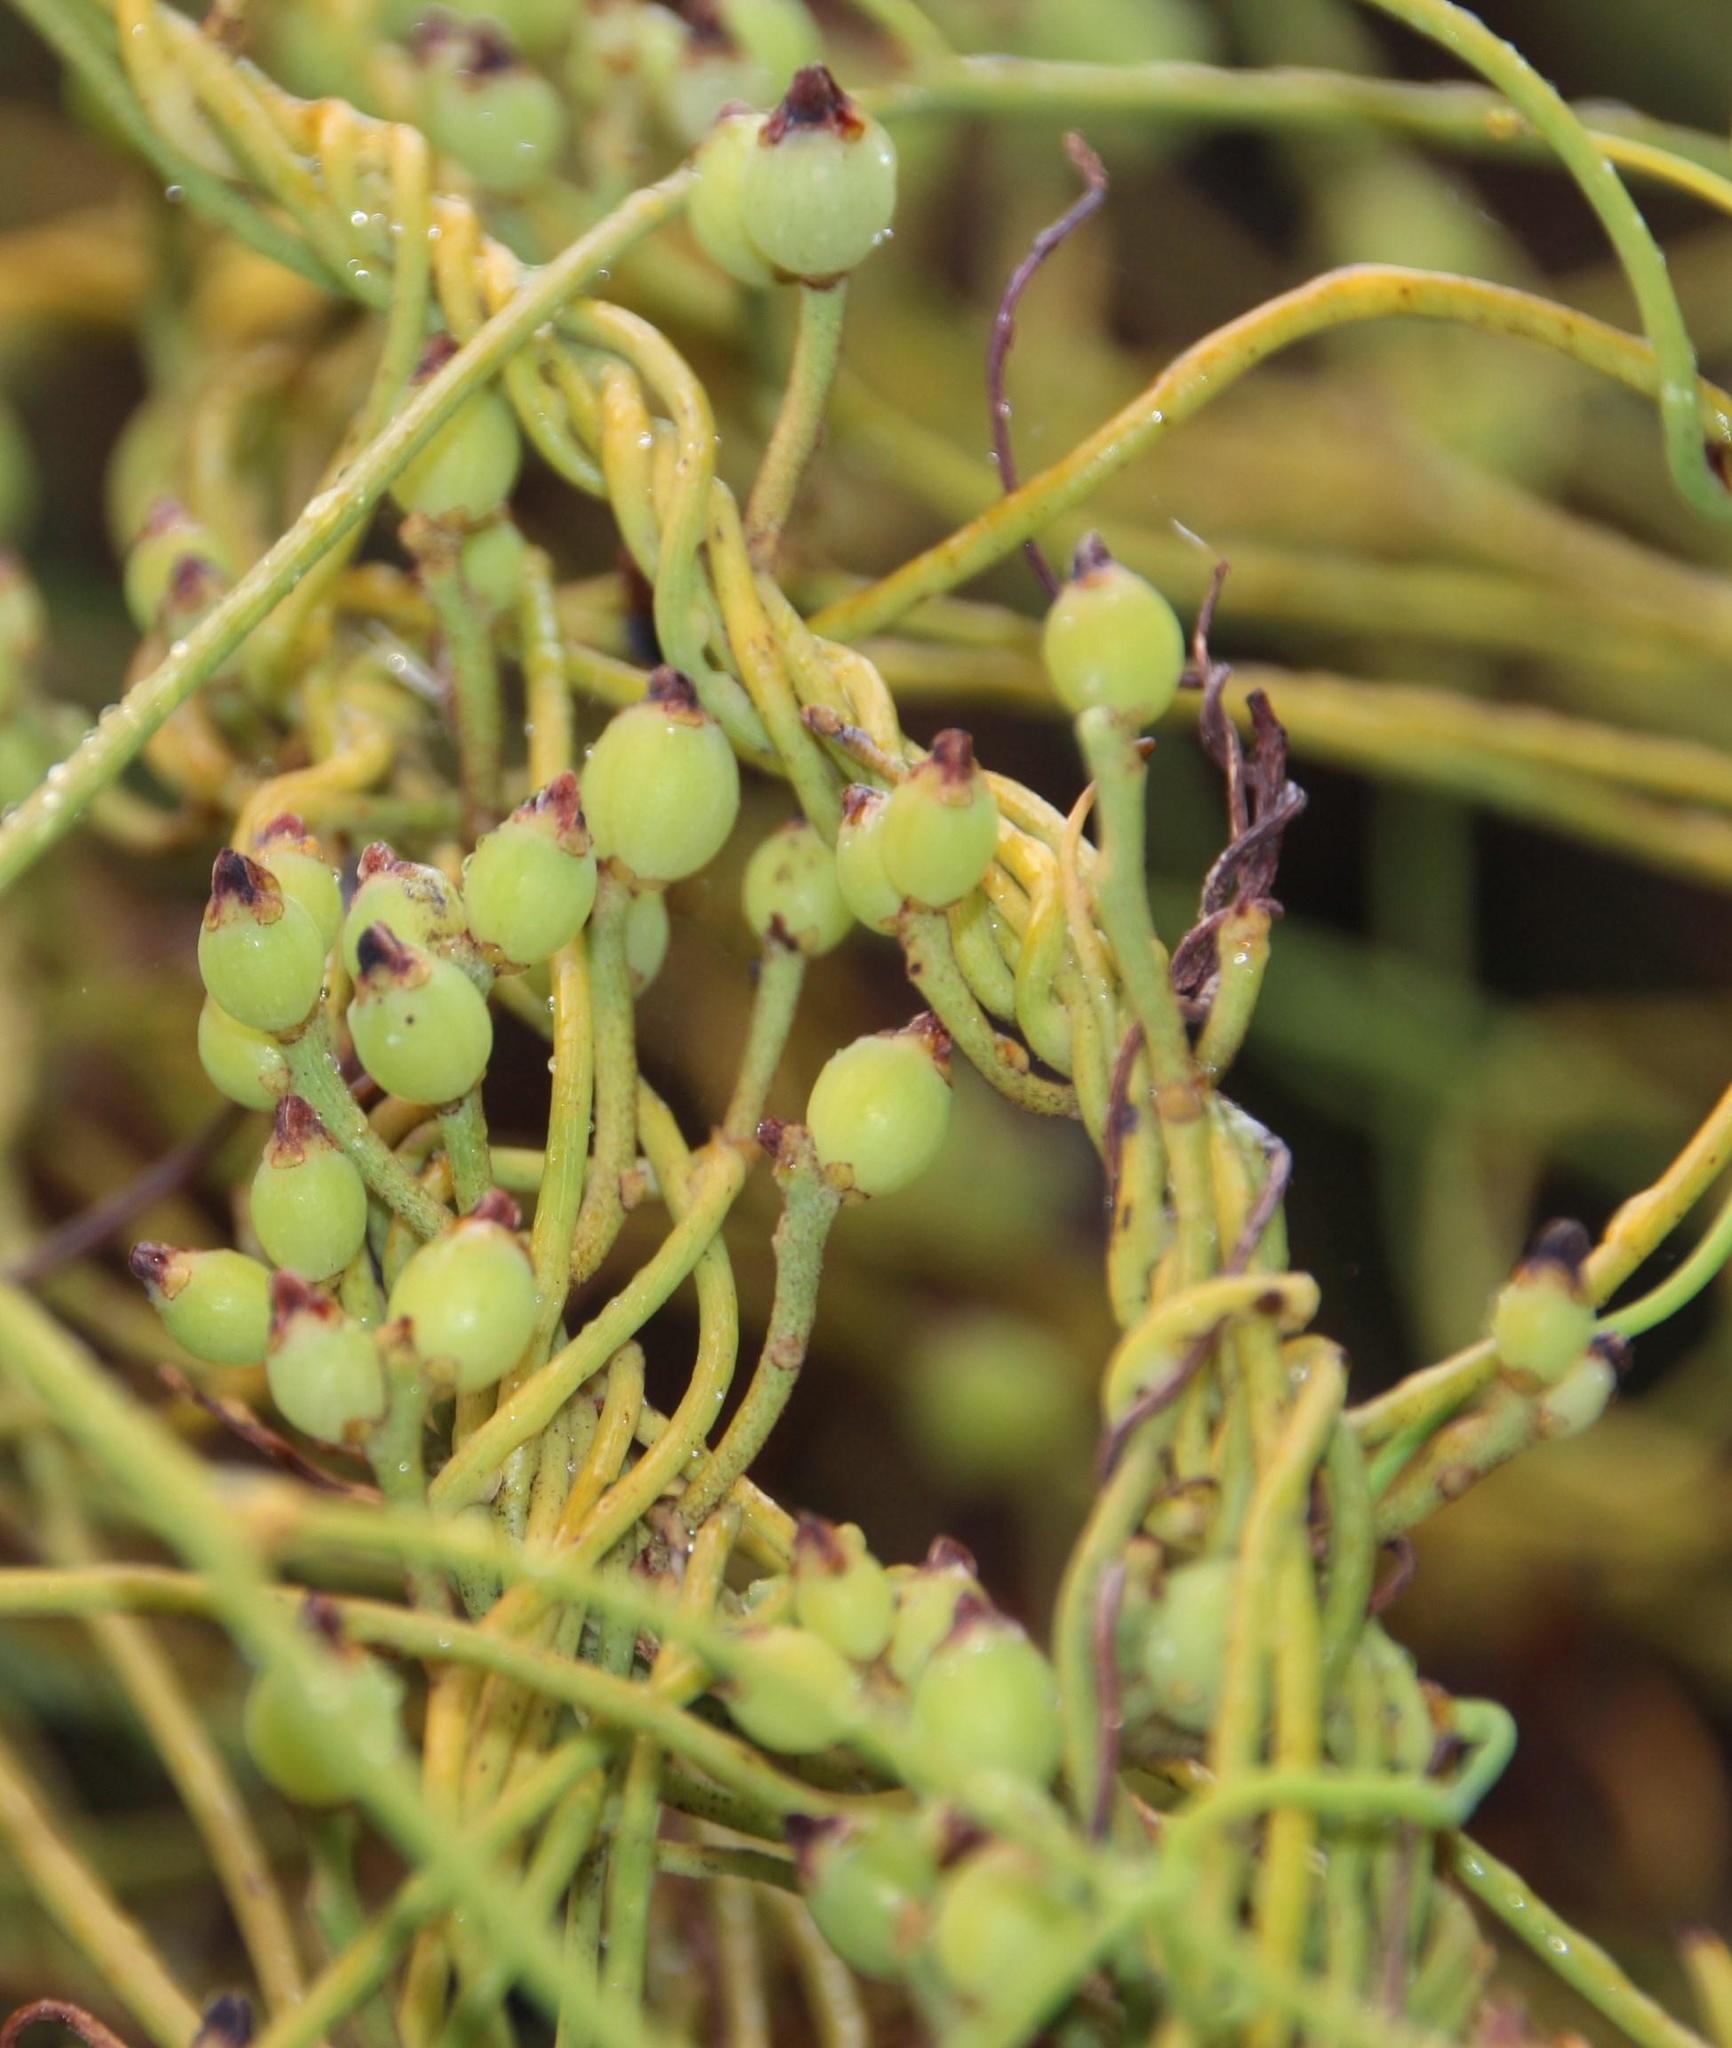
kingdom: Plantae
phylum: Tracheophyta
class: Magnoliopsida
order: Laurales
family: Lauraceae
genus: Cassytha
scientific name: Cassytha ciliolata
